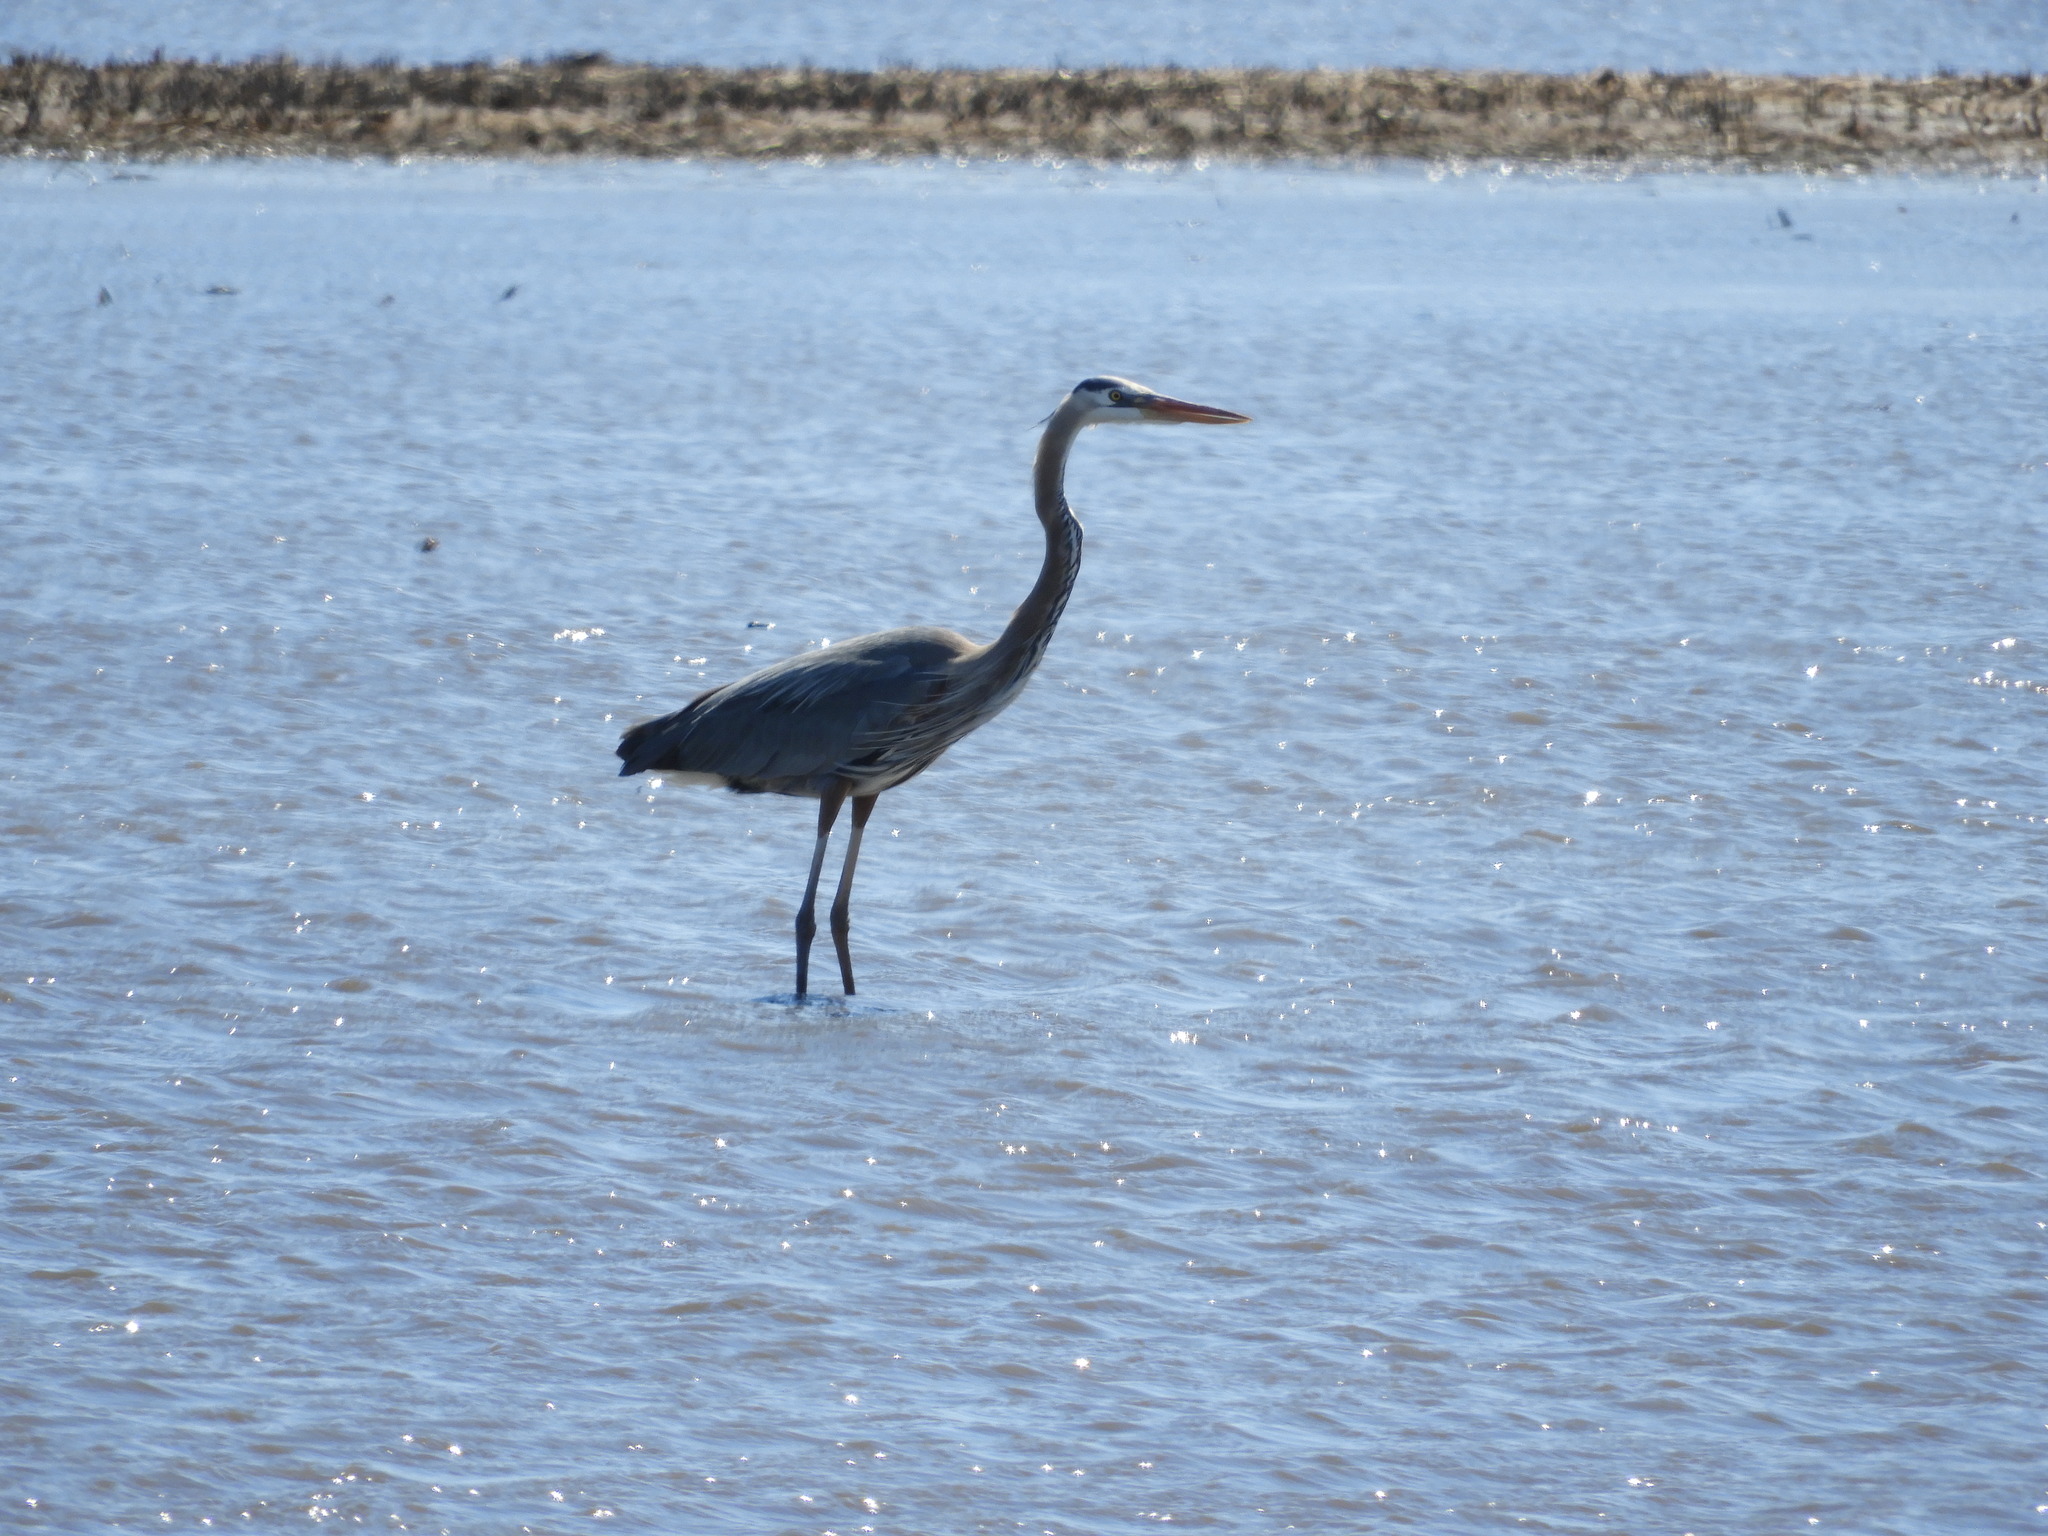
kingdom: Animalia
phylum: Chordata
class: Aves
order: Pelecaniformes
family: Ardeidae
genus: Ardea
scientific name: Ardea herodias
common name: Great blue heron
